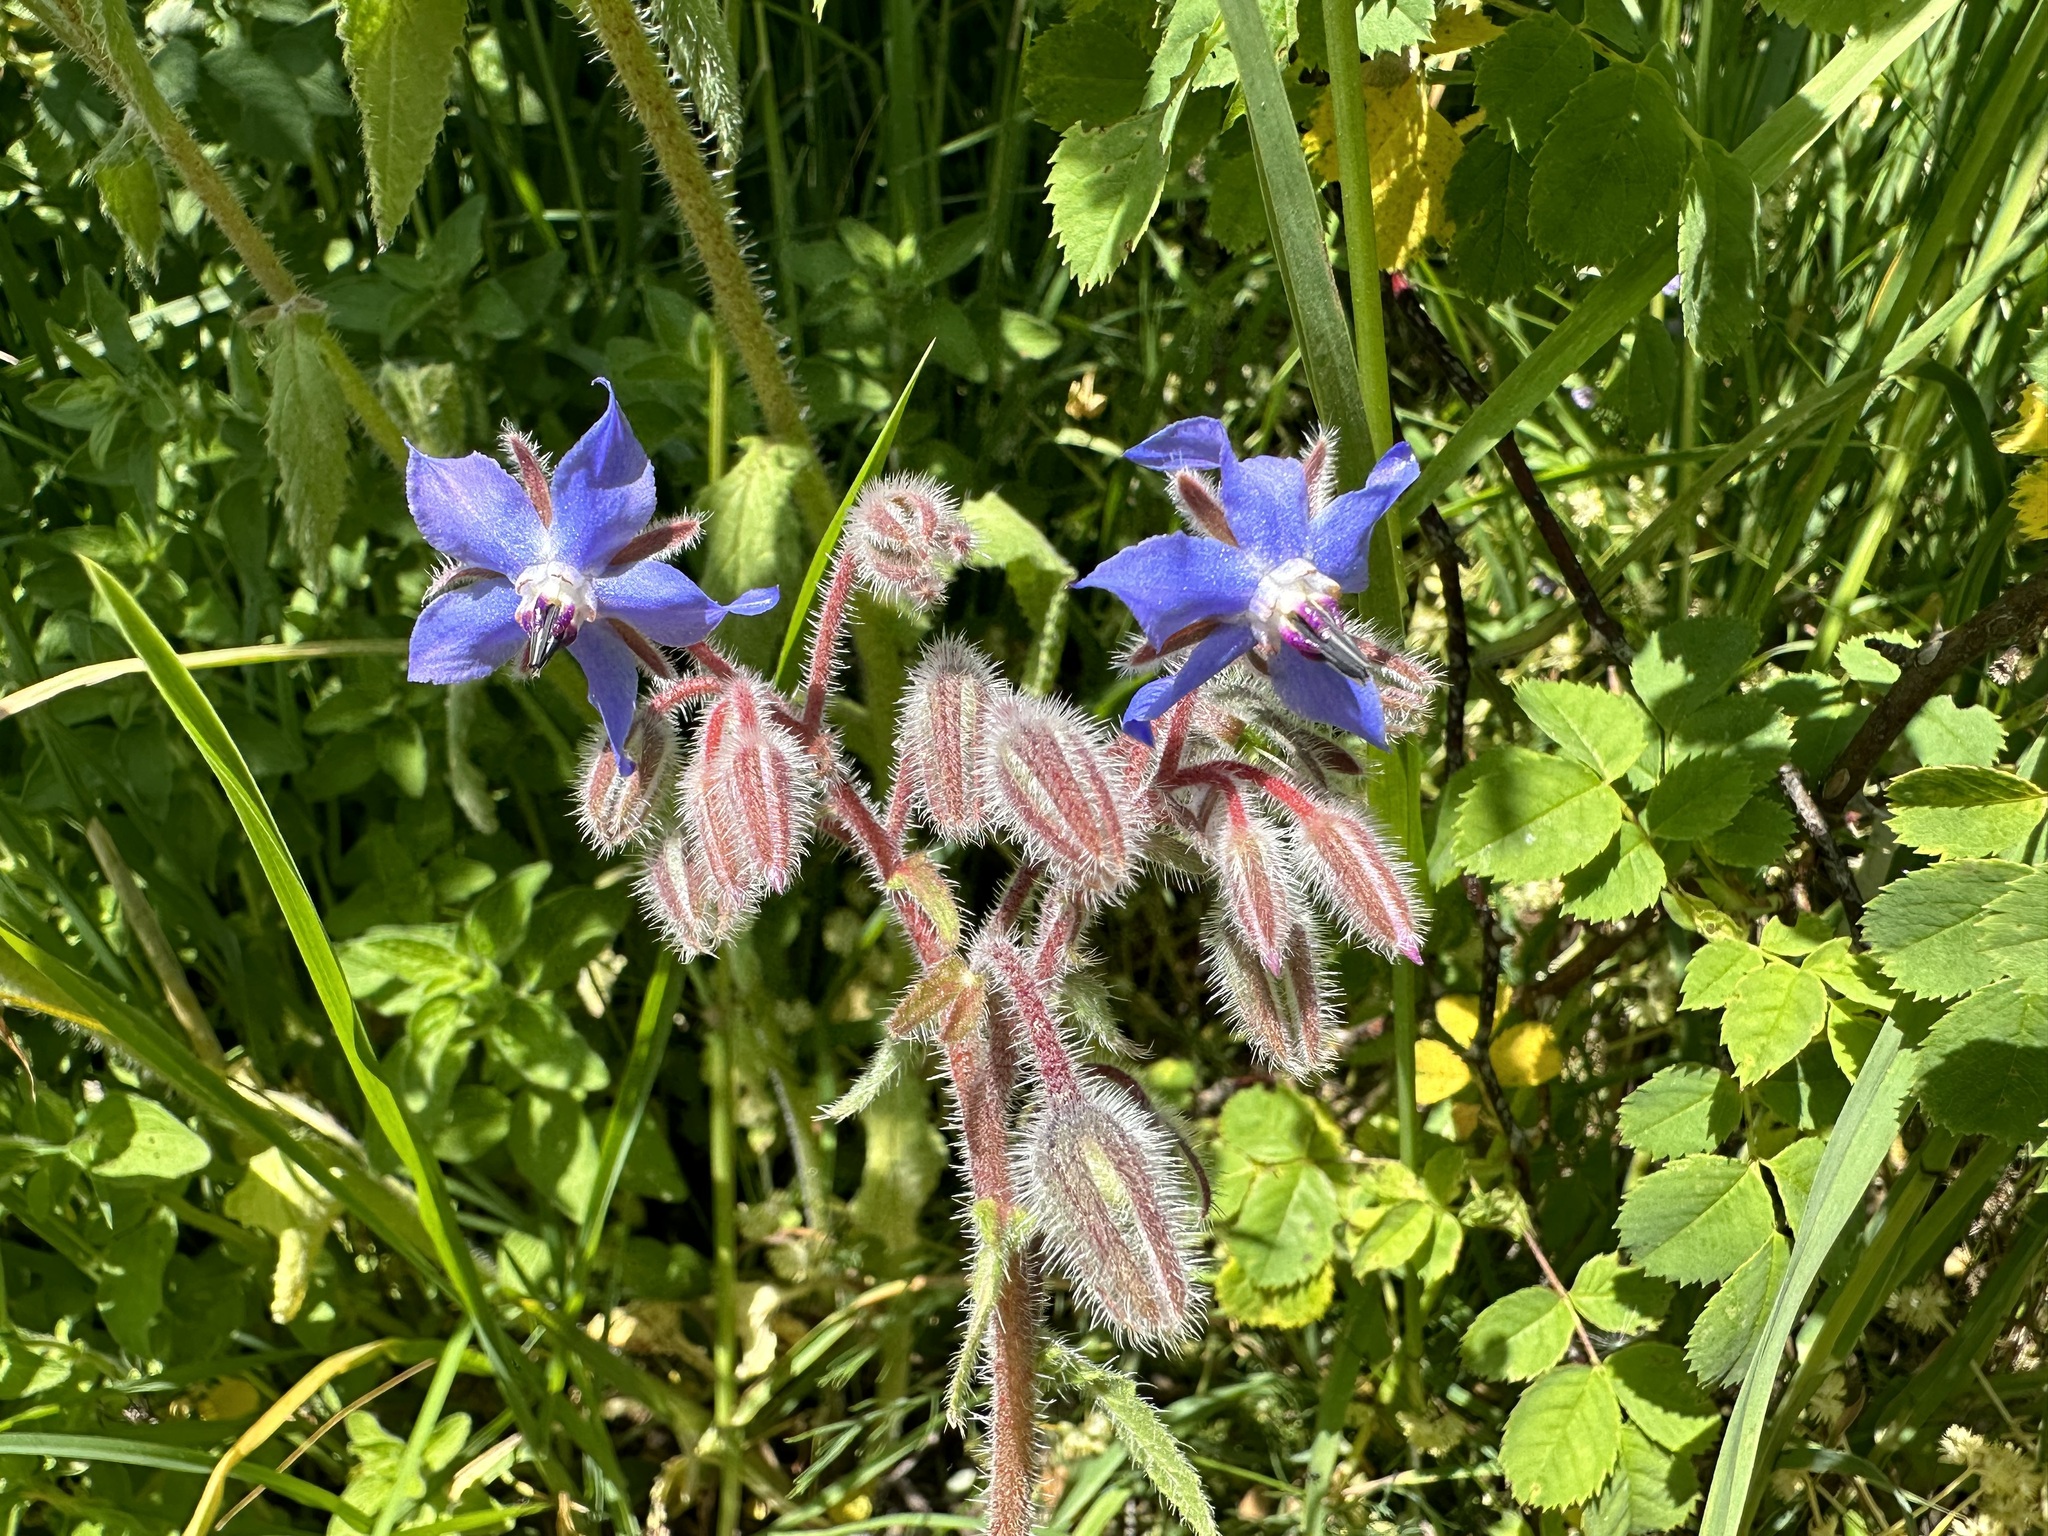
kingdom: Plantae
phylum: Tracheophyta
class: Magnoliopsida
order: Boraginales
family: Boraginaceae
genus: Borago
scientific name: Borago officinalis
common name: Borage
